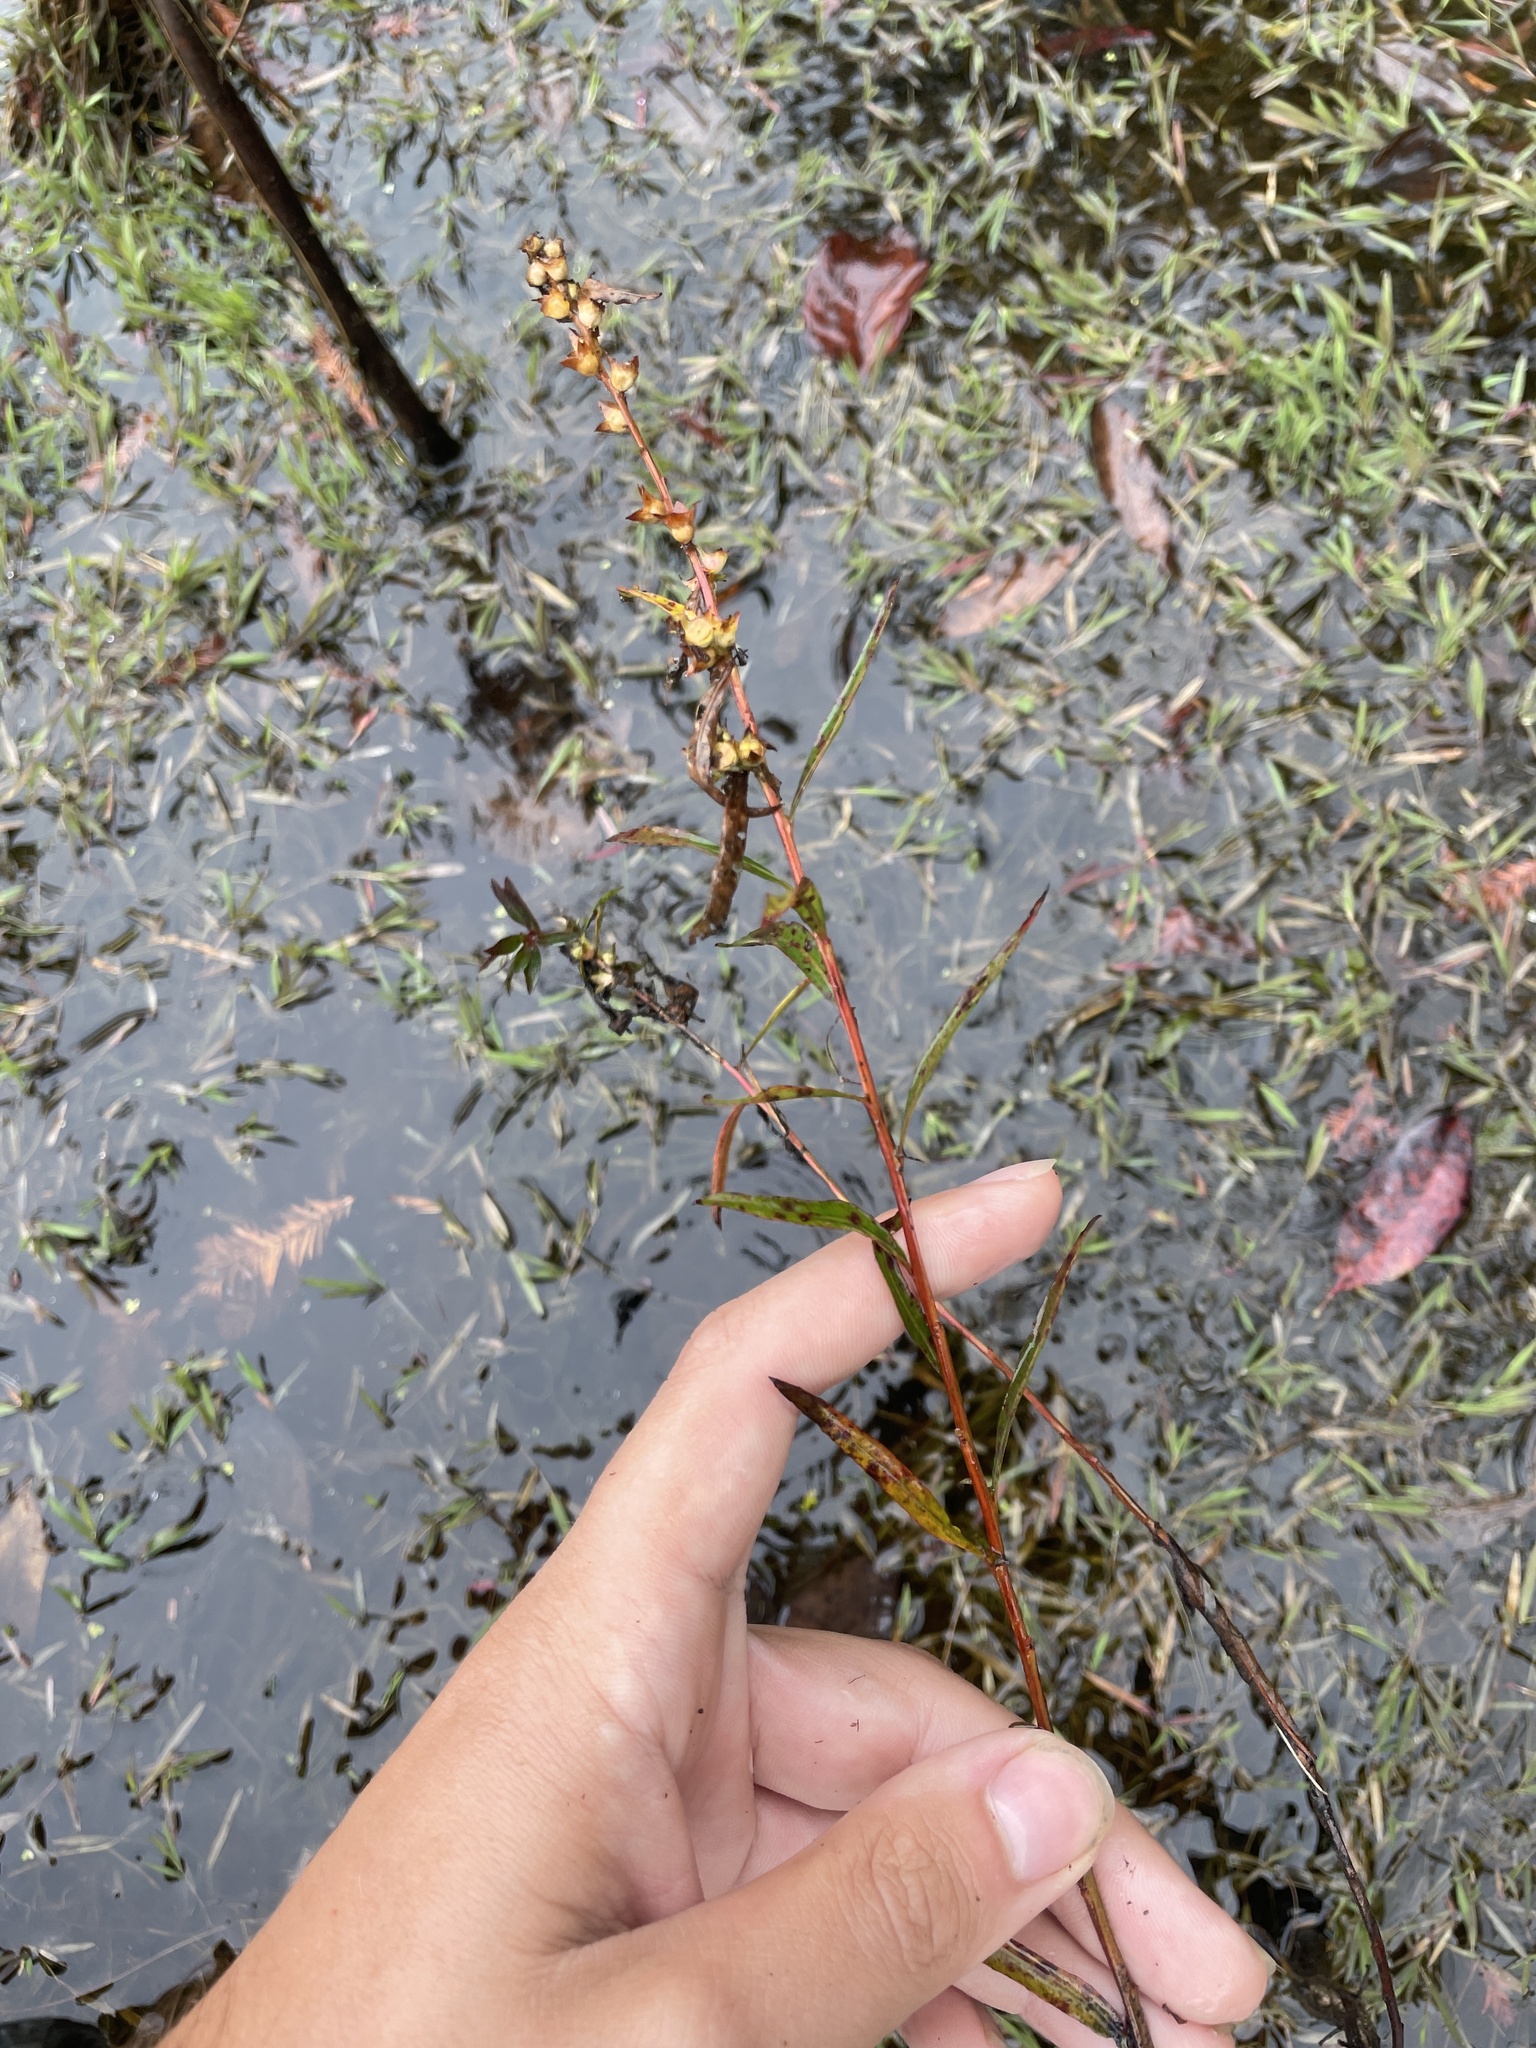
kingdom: Plantae
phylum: Tracheophyta
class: Magnoliopsida
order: Myrtales
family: Onagraceae
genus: Ludwigia
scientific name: Ludwigia sphaerocarpa
